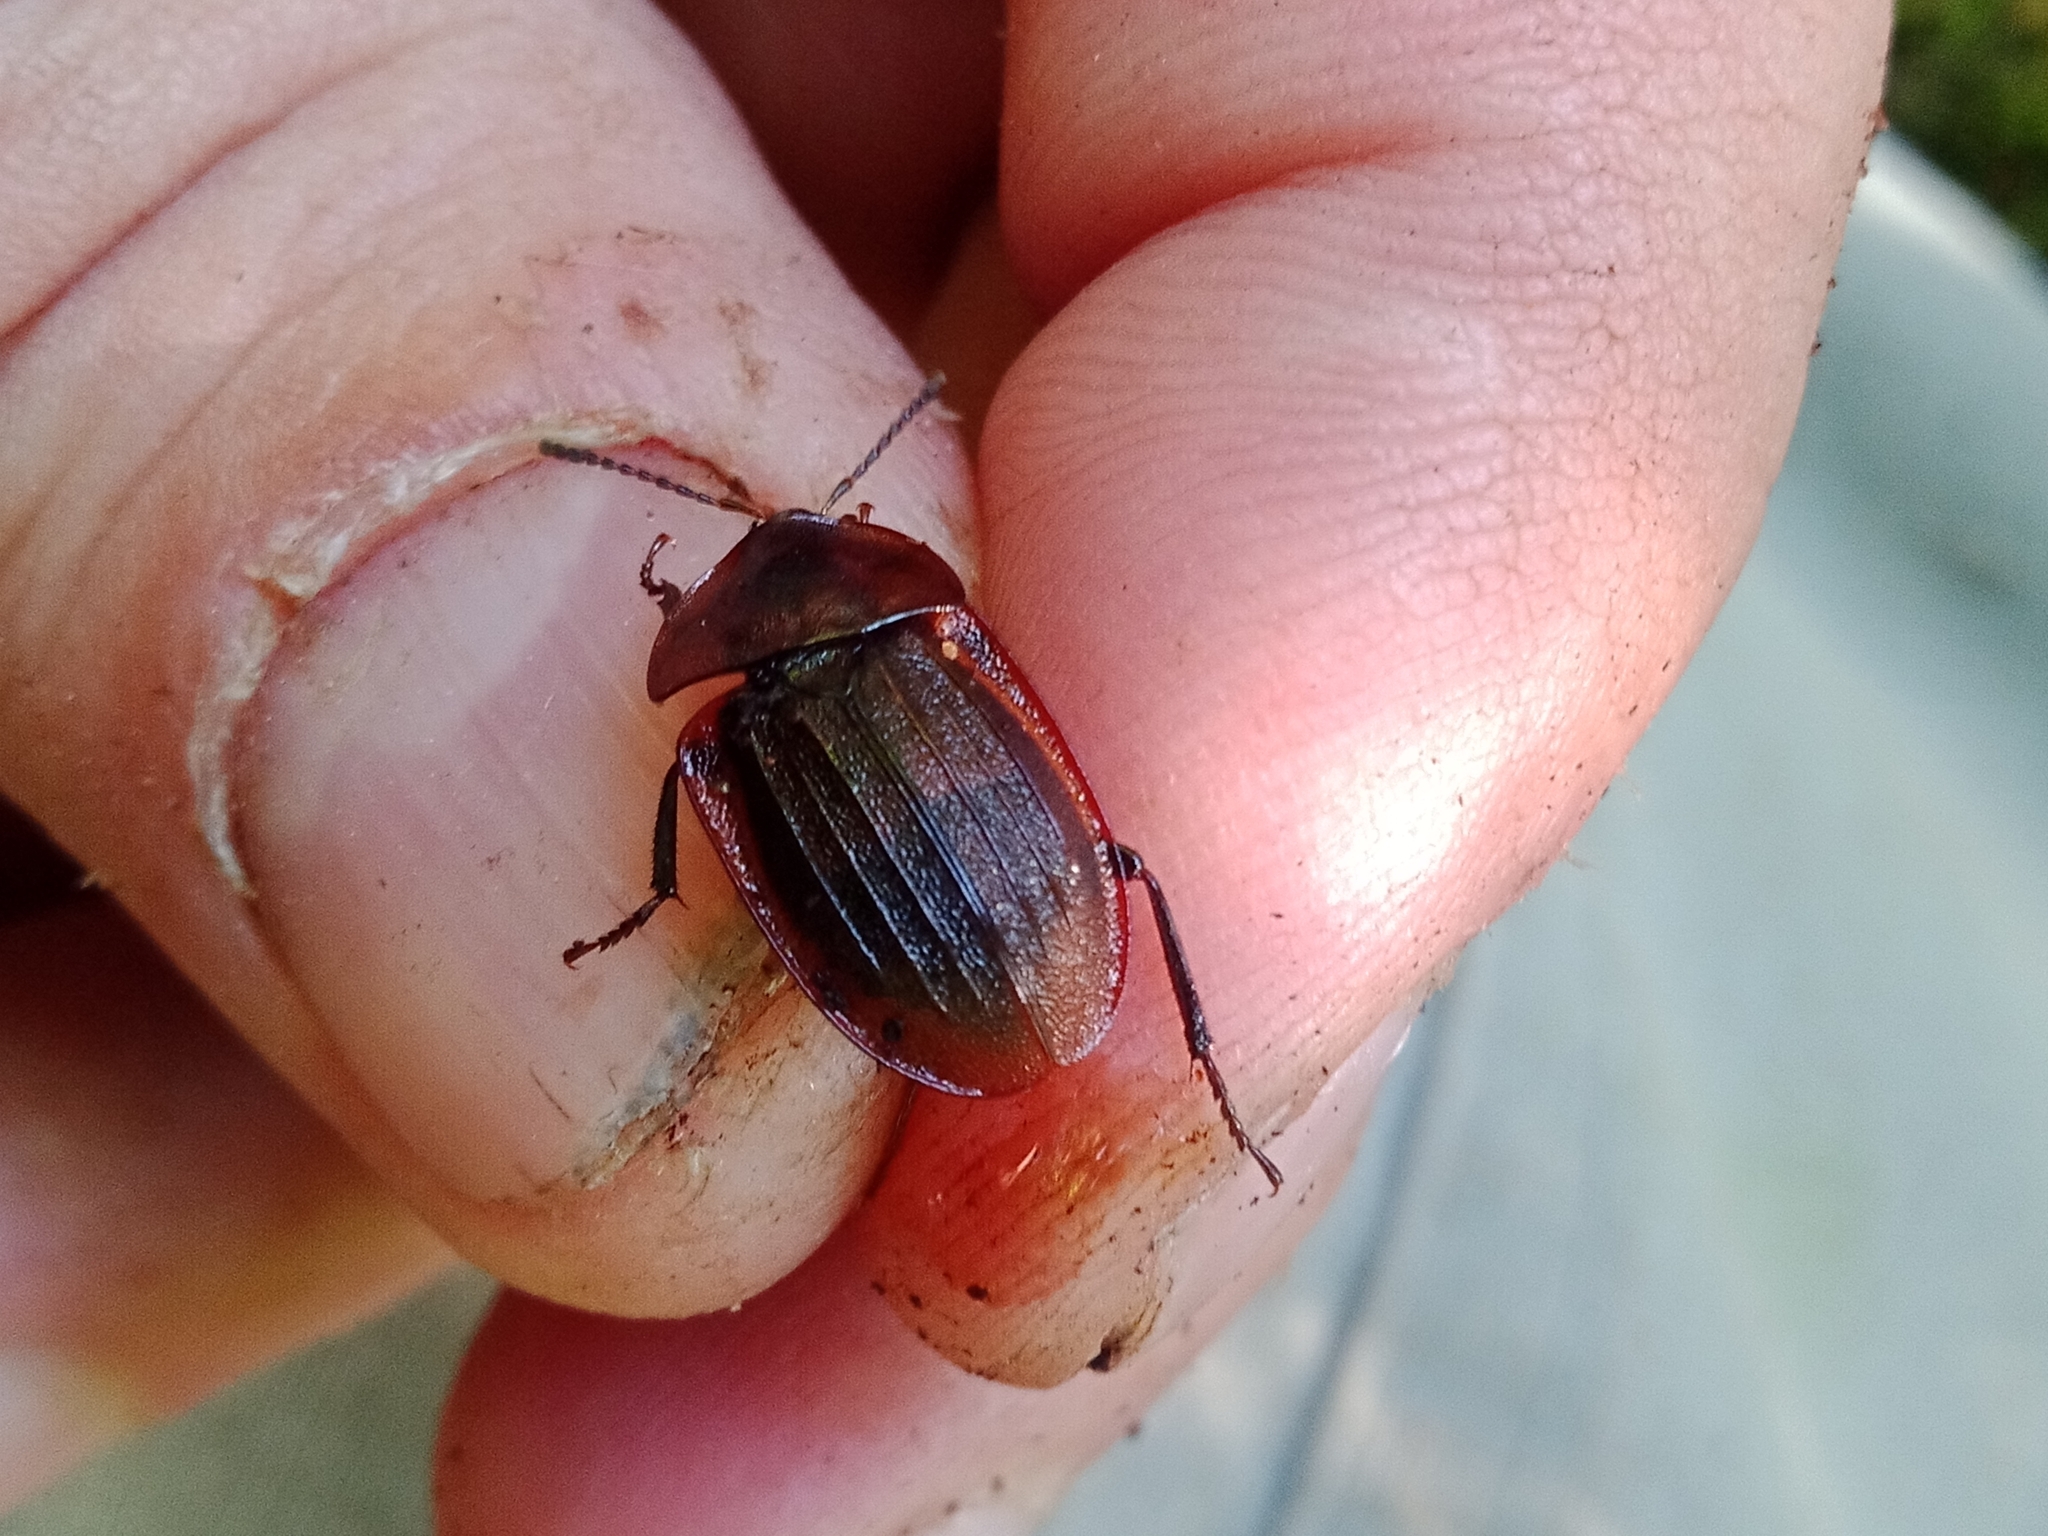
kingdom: Animalia
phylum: Arthropoda
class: Insecta
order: Coleoptera
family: Staphylinidae
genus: Silpha
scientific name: Silpha atrata
